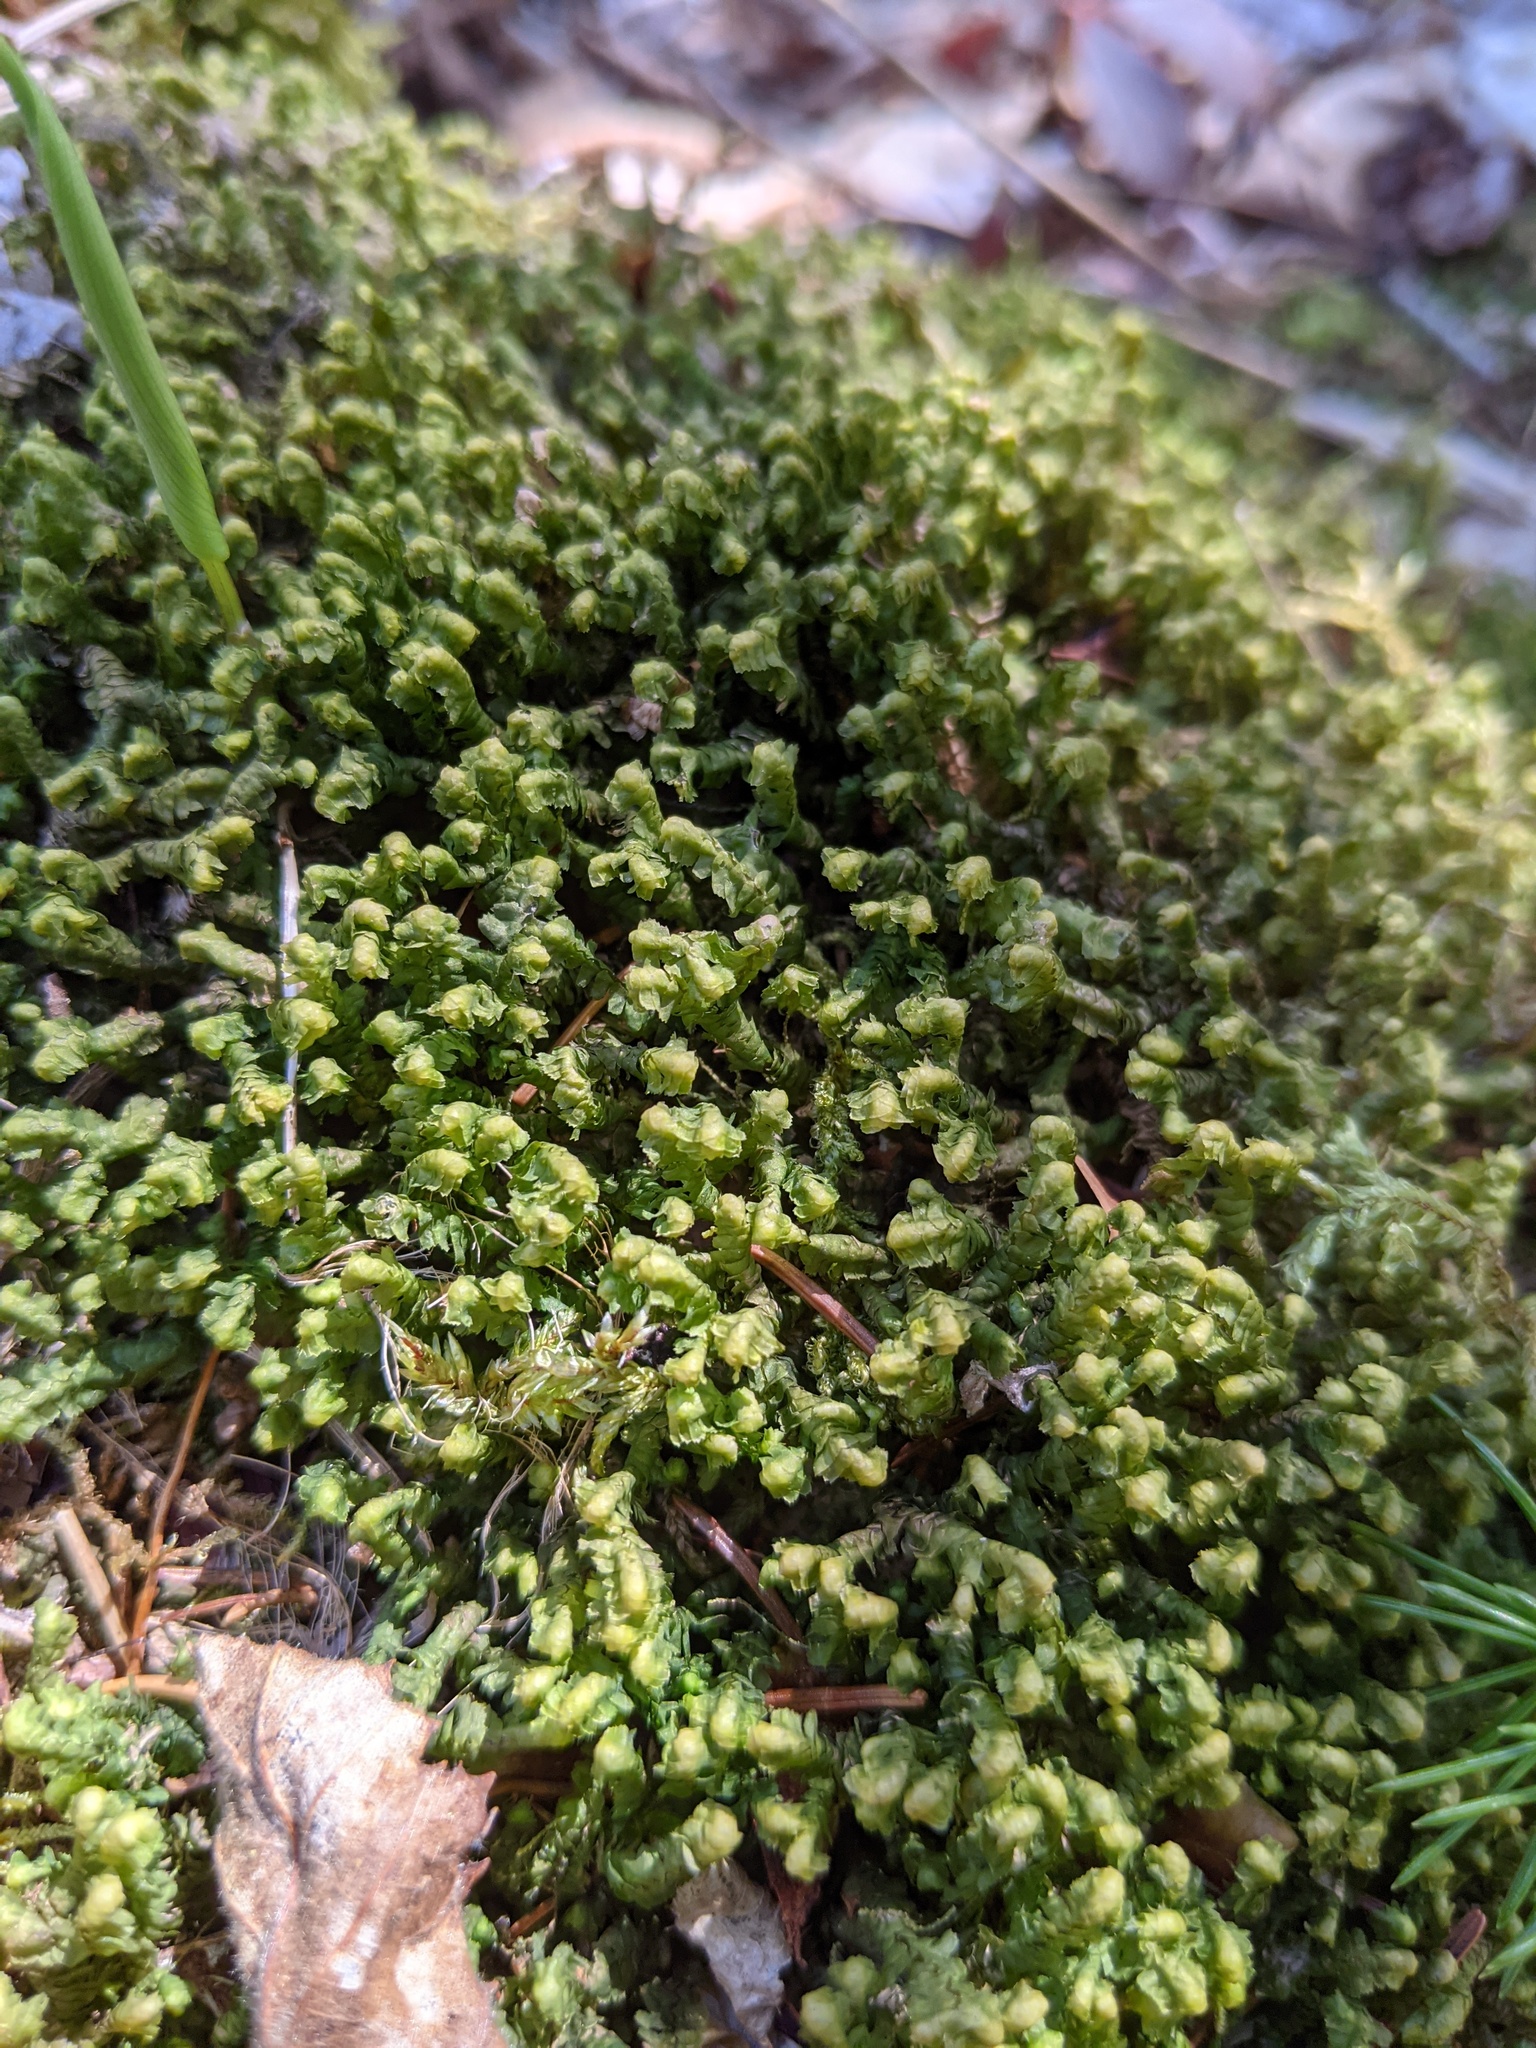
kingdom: Plantae
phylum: Marchantiophyta
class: Jungermanniopsida
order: Jungermanniales
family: Lepidoziaceae
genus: Bazzania
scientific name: Bazzania trilobata
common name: Three-lobed whipwort
